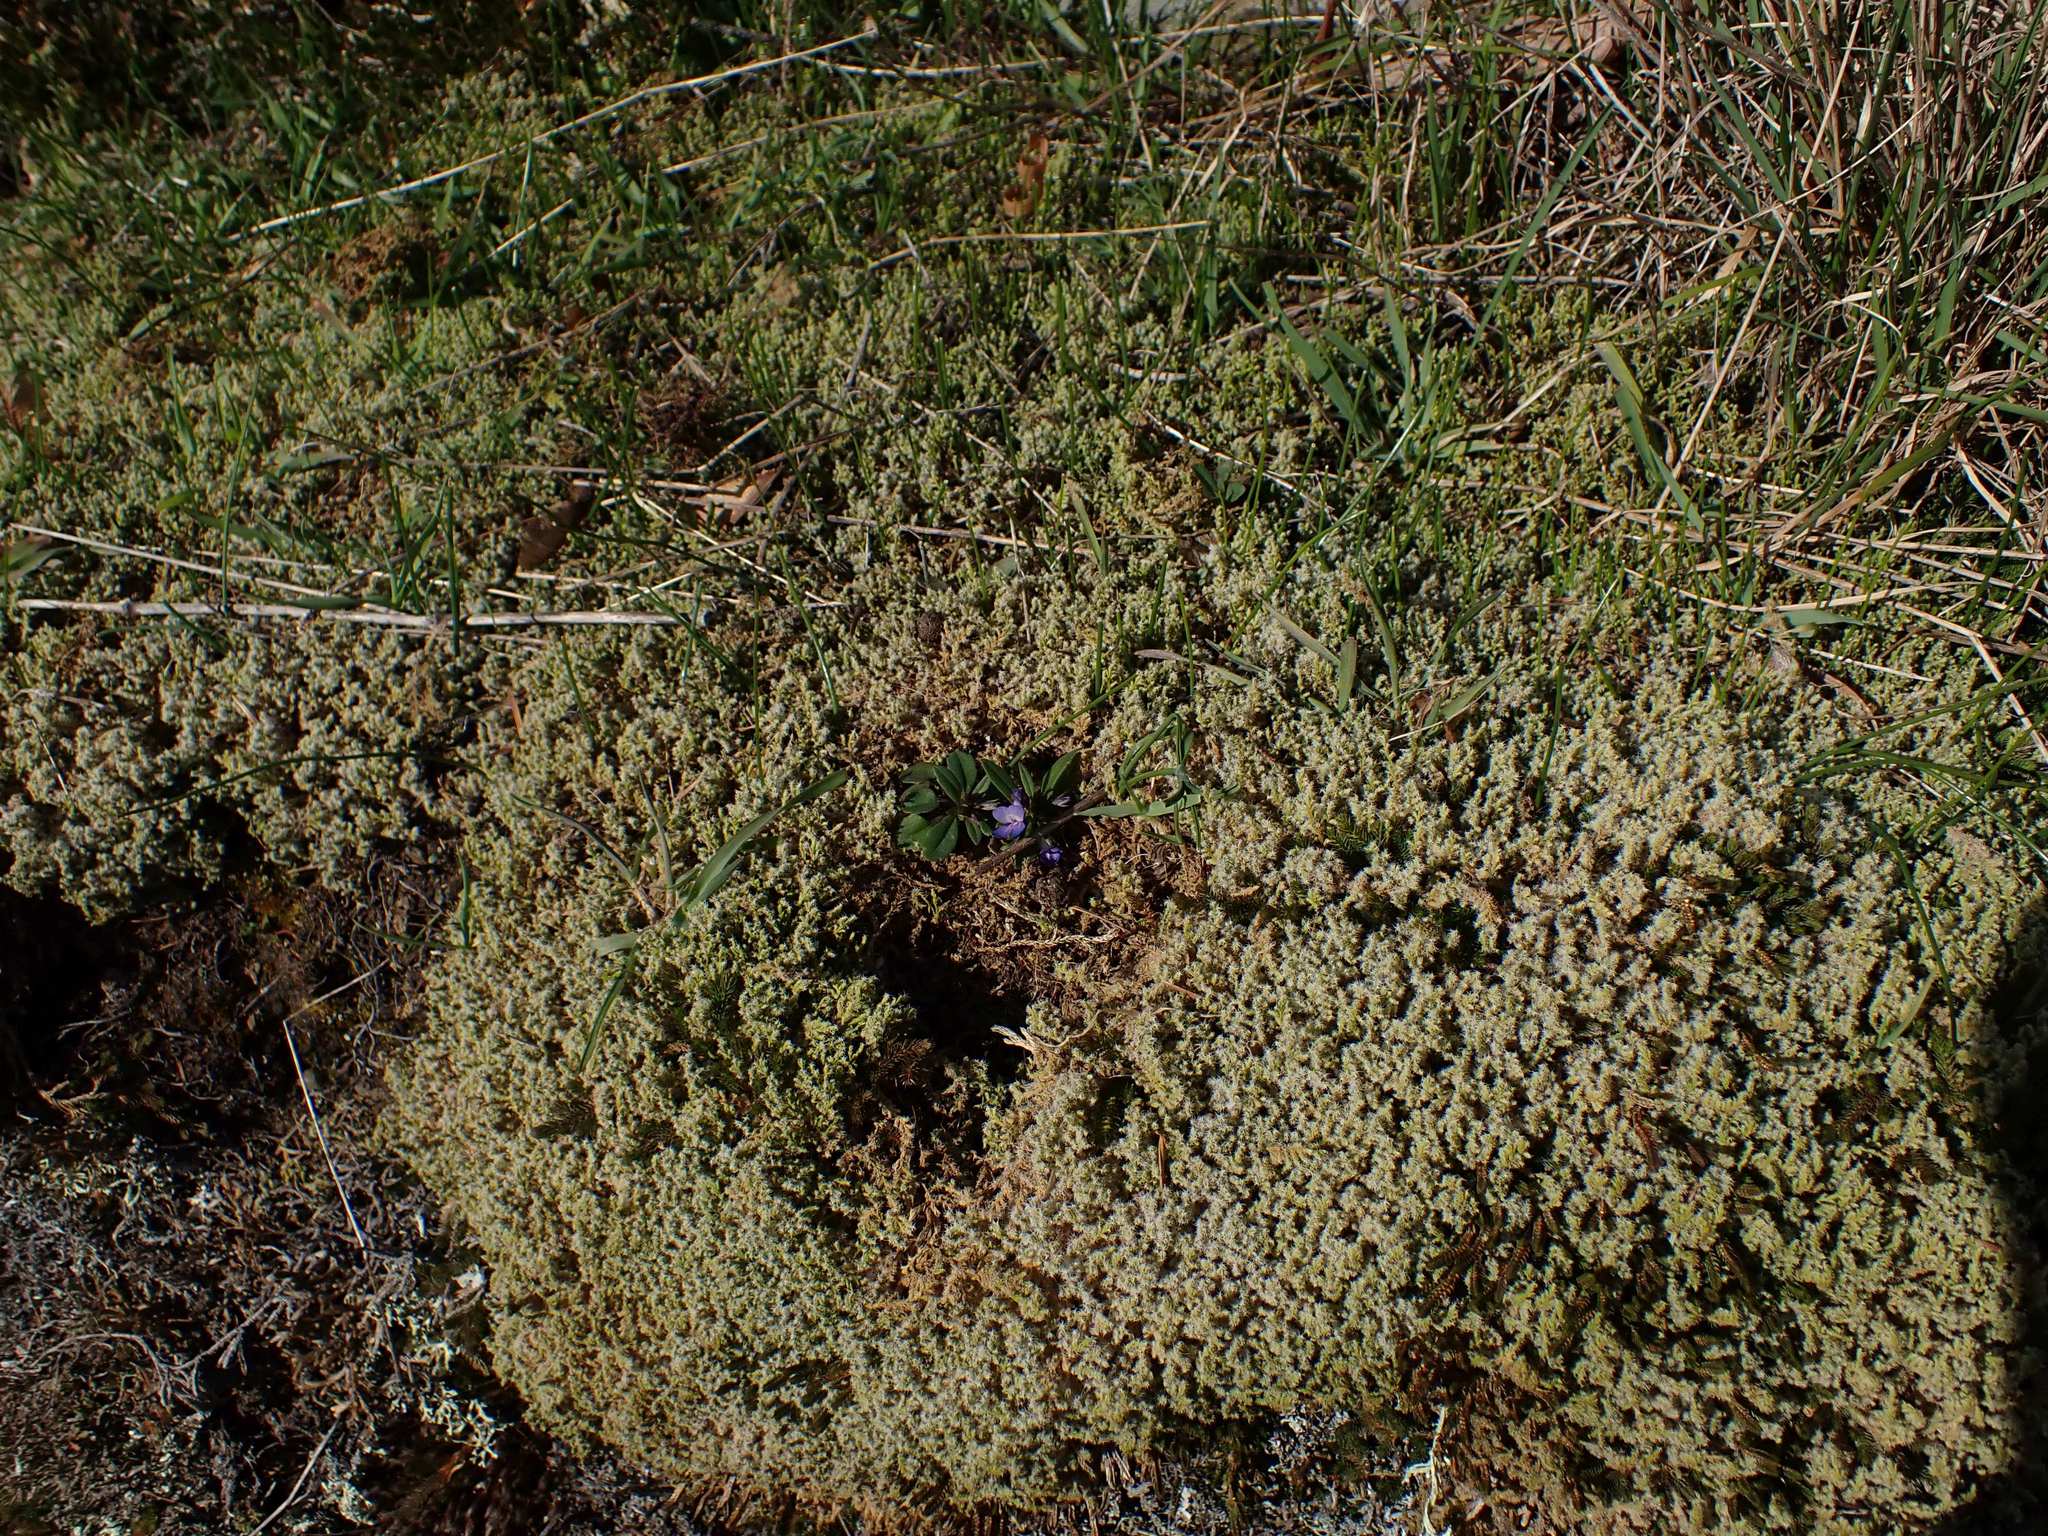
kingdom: Plantae
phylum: Tracheophyta
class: Magnoliopsida
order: Lamiales
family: Plantaginaceae
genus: Collinsia
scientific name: Collinsia grandiflora
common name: Large-flower blue-eyed-mary
